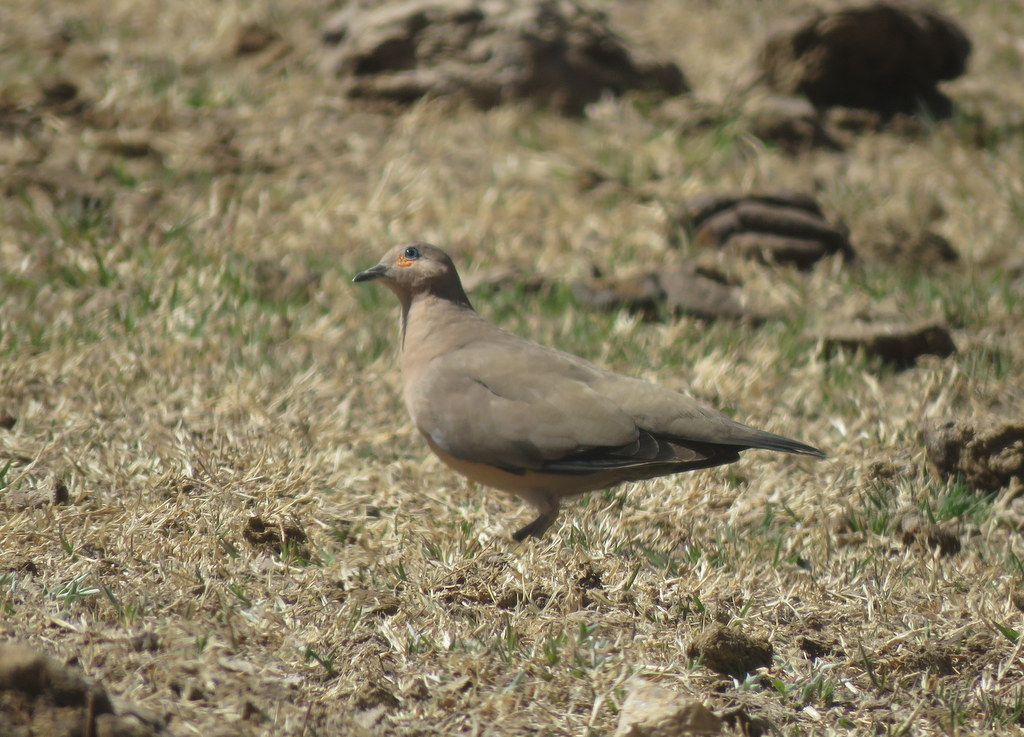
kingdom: Animalia
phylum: Chordata
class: Aves
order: Columbiformes
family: Columbidae
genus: Metriopelia
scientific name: Metriopelia melanoptera
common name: Black-winged ground dove
